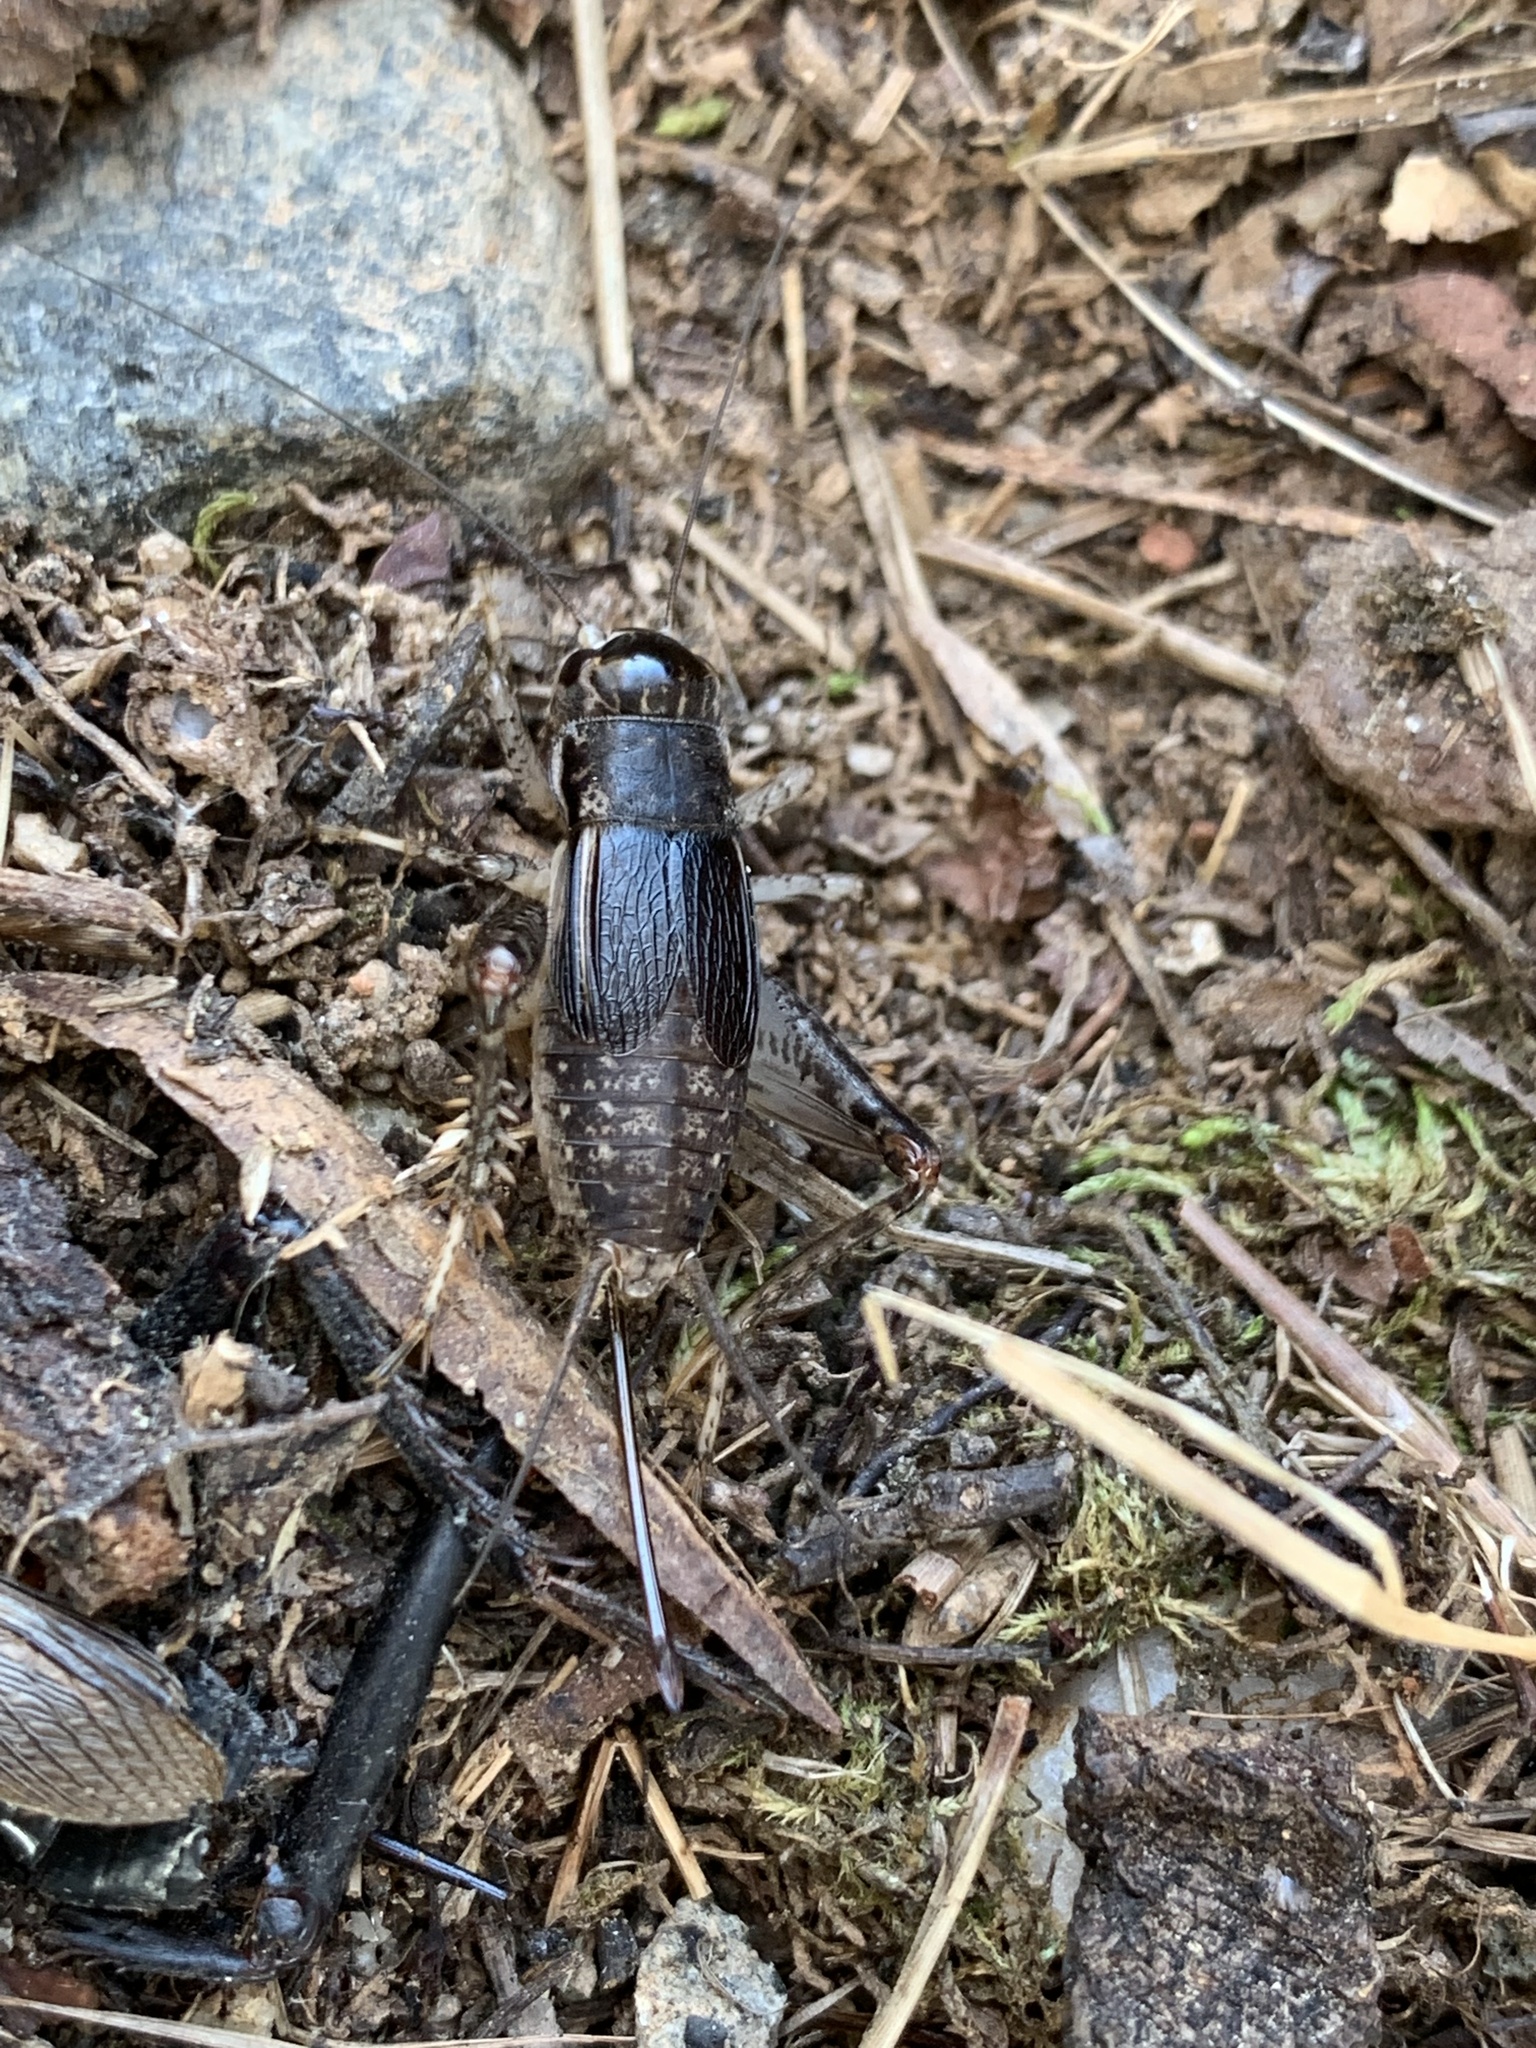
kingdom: Animalia
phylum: Arthropoda
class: Insecta
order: Orthoptera
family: Gryllidae
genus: Velarifictorus
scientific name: Velarifictorus micado
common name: Japanese burrowing cricket
